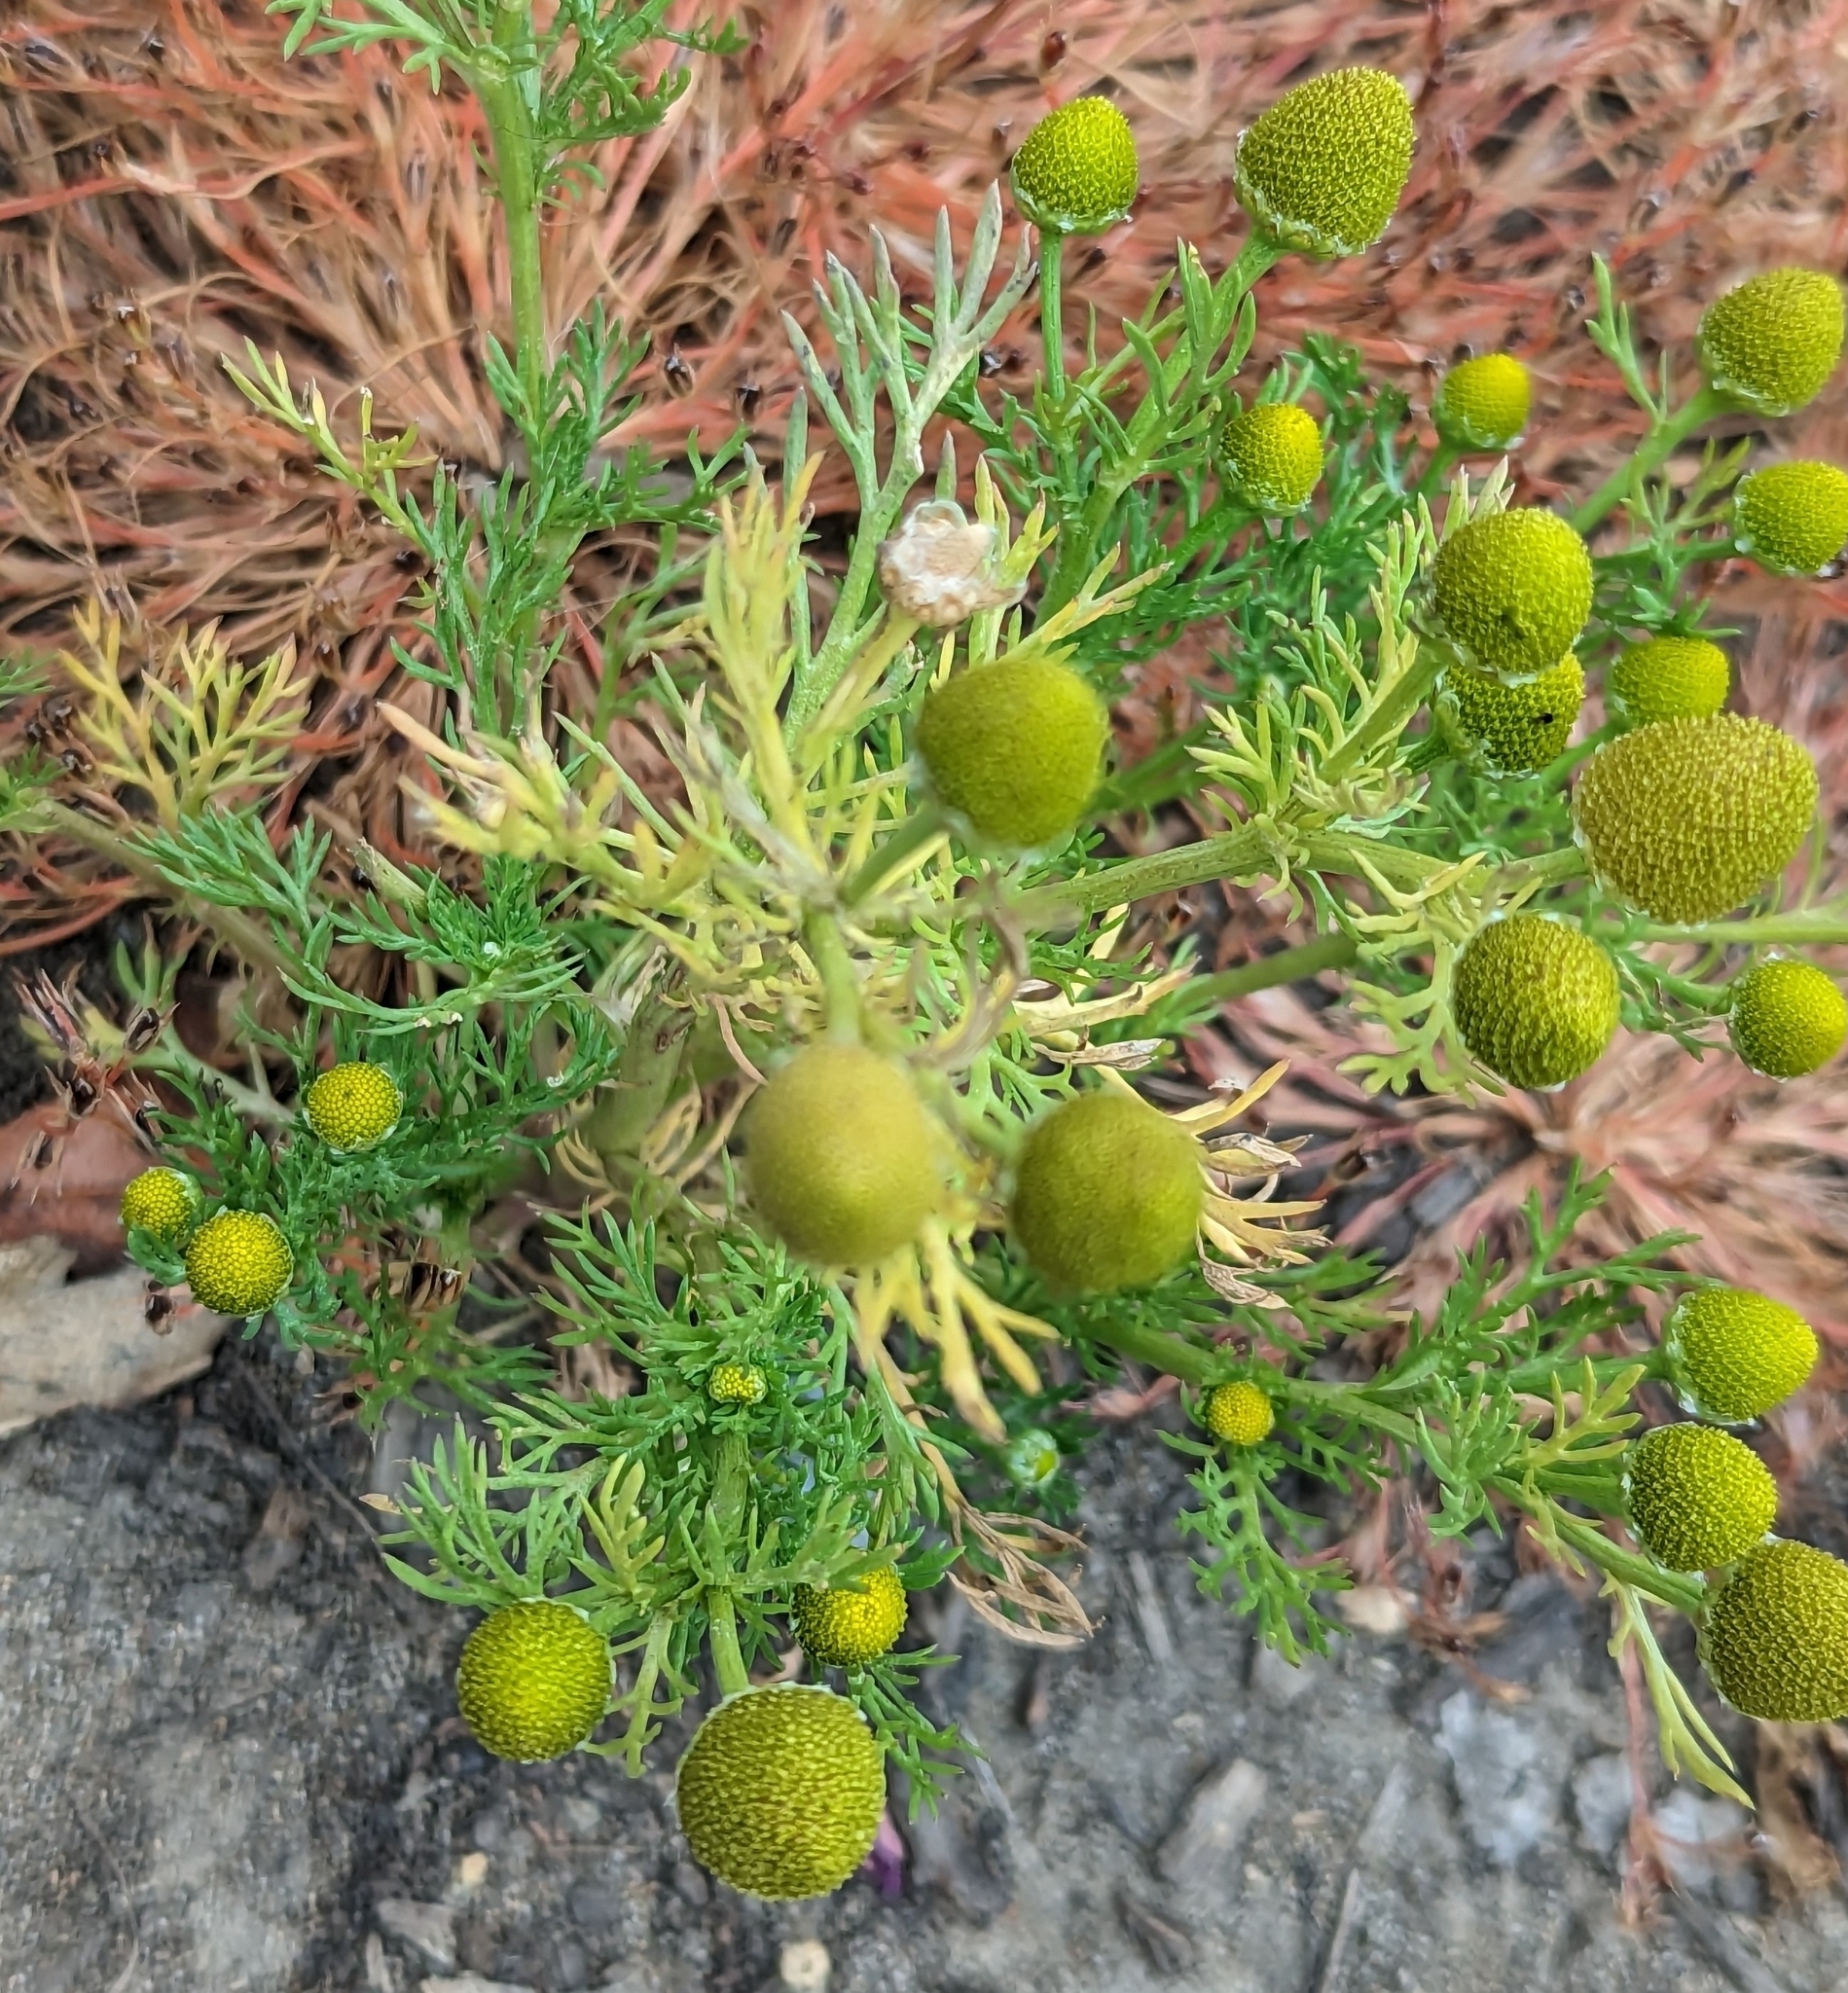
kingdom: Plantae
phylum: Tracheophyta
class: Magnoliopsida
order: Asterales
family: Asteraceae
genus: Matricaria
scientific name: Matricaria discoidea
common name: Disc mayweed
